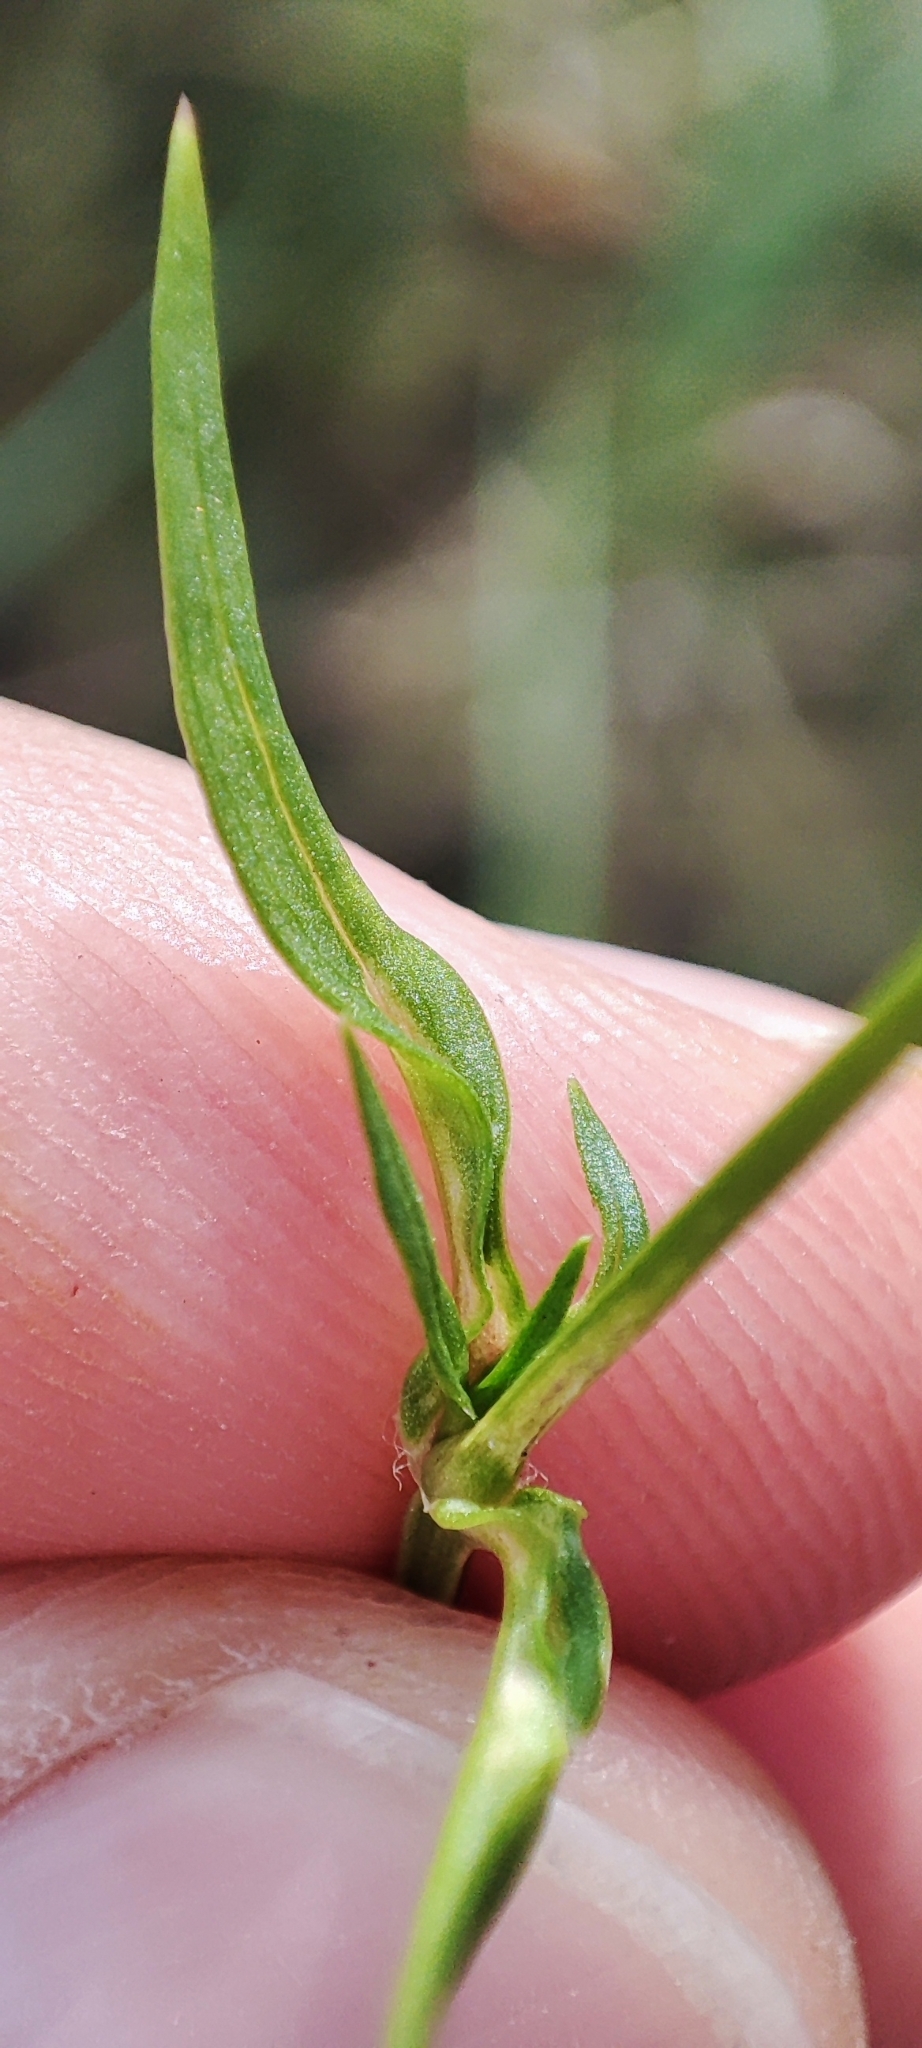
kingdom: Plantae
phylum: Tracheophyta
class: Magnoliopsida
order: Caryophyllales
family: Caryophyllaceae
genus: Stellaria
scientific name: Stellaria graminea
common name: Grass-like starwort
